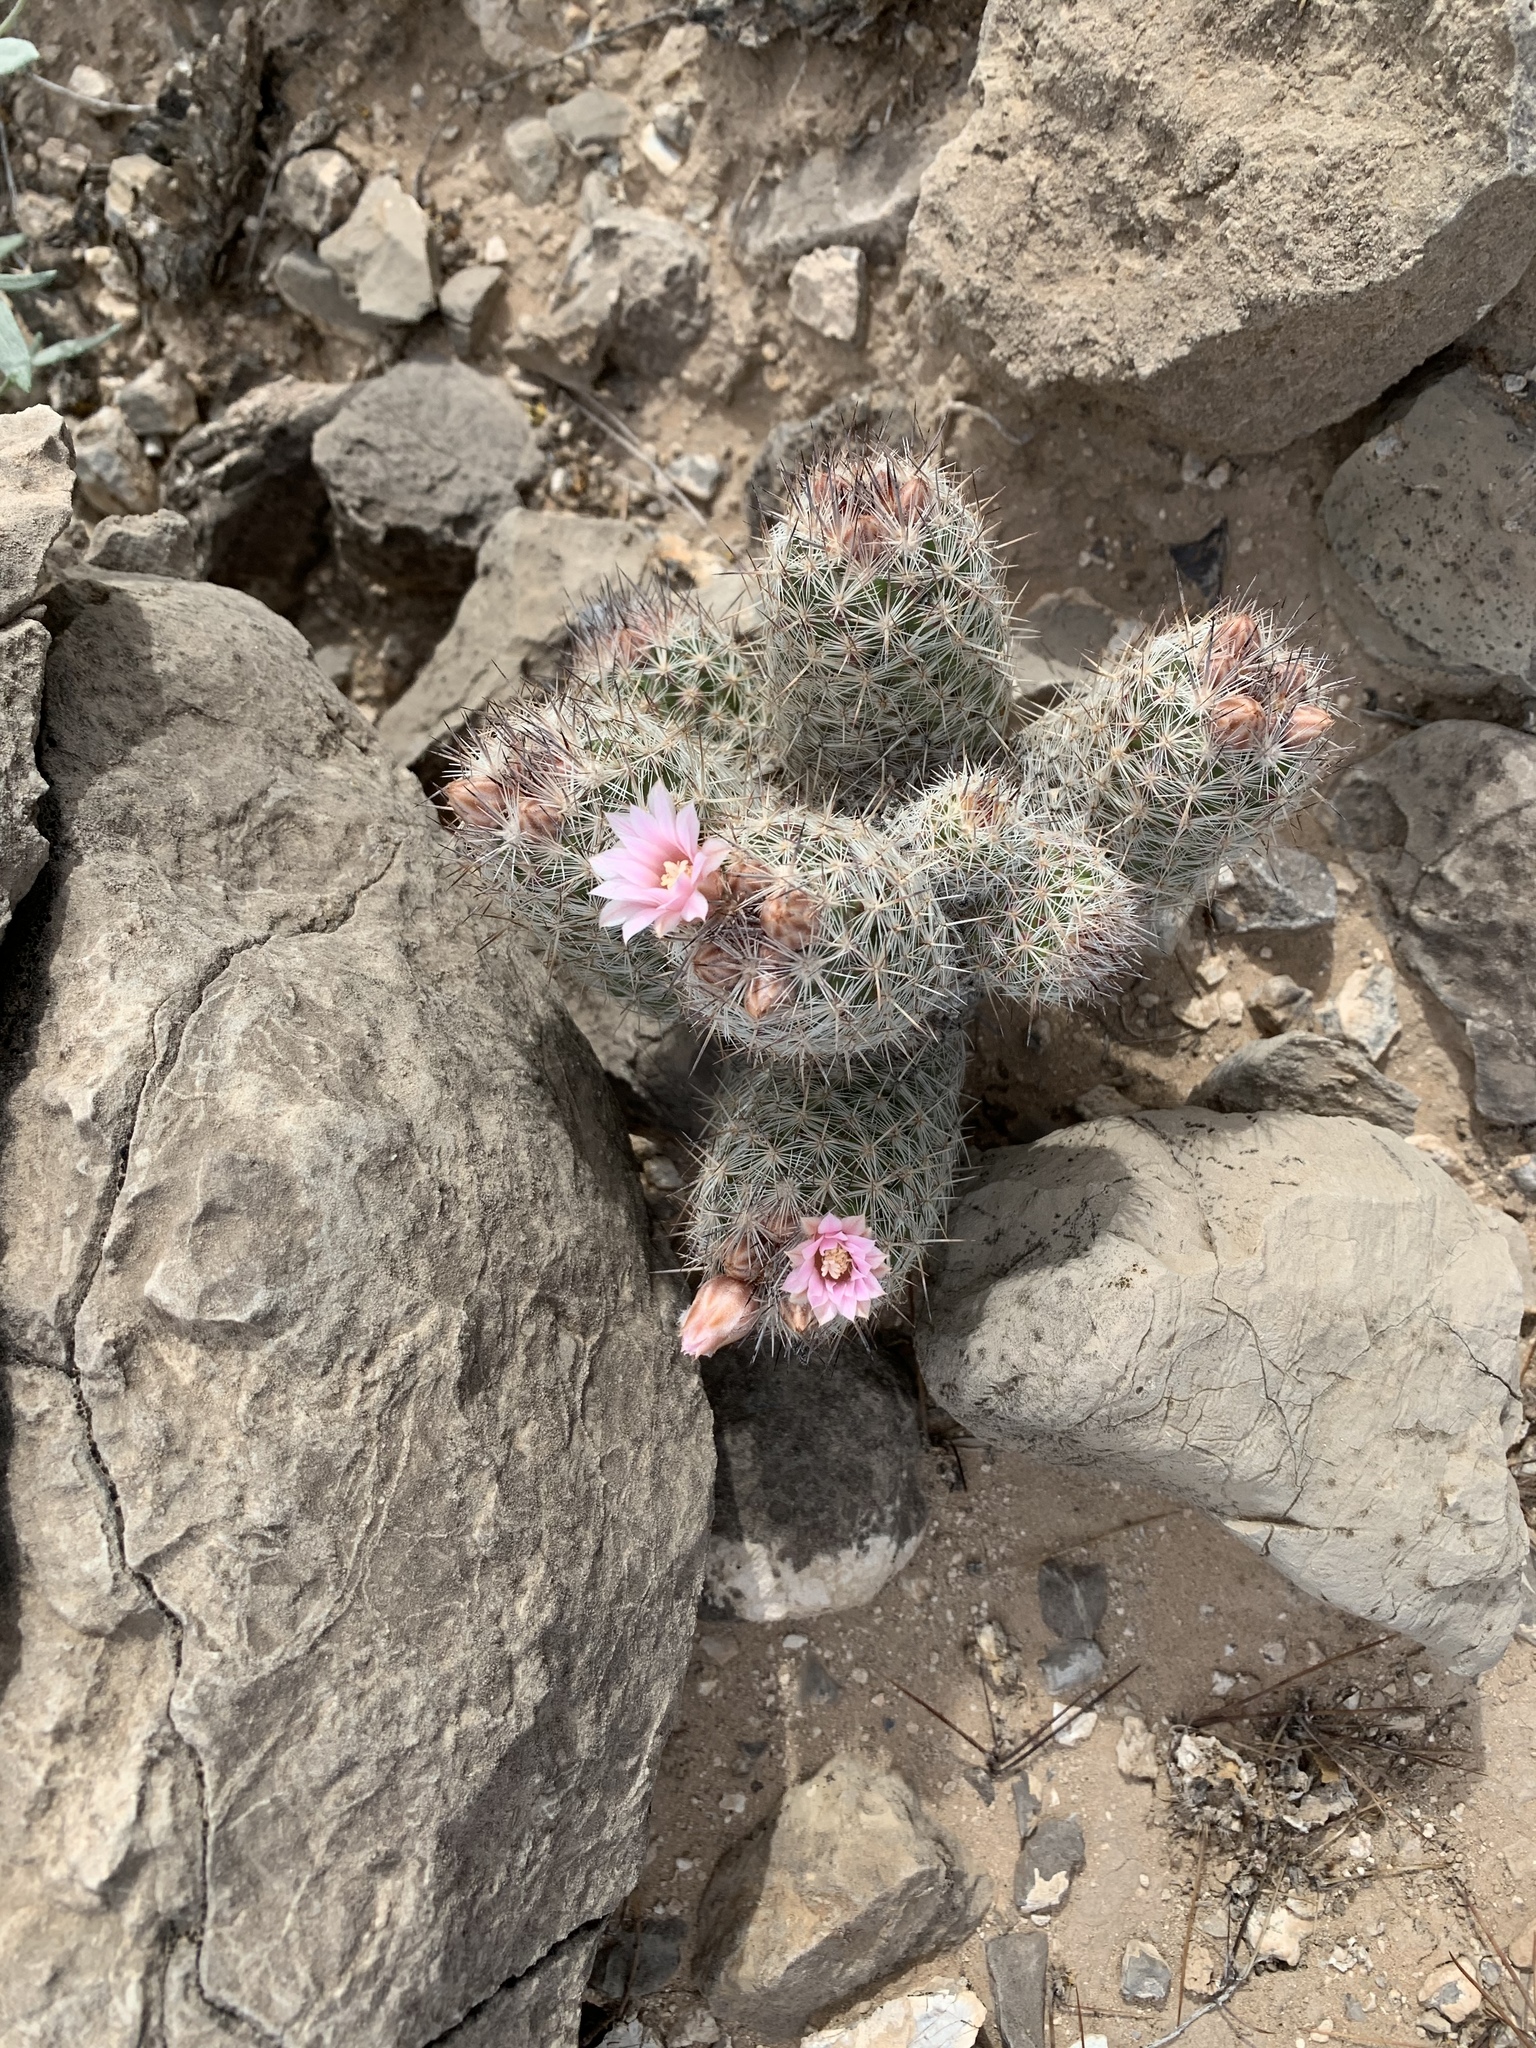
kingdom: Plantae
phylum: Tracheophyta
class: Magnoliopsida
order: Caryophyllales
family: Cactaceae
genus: Pelecyphora
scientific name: Pelecyphora tuberculosa
